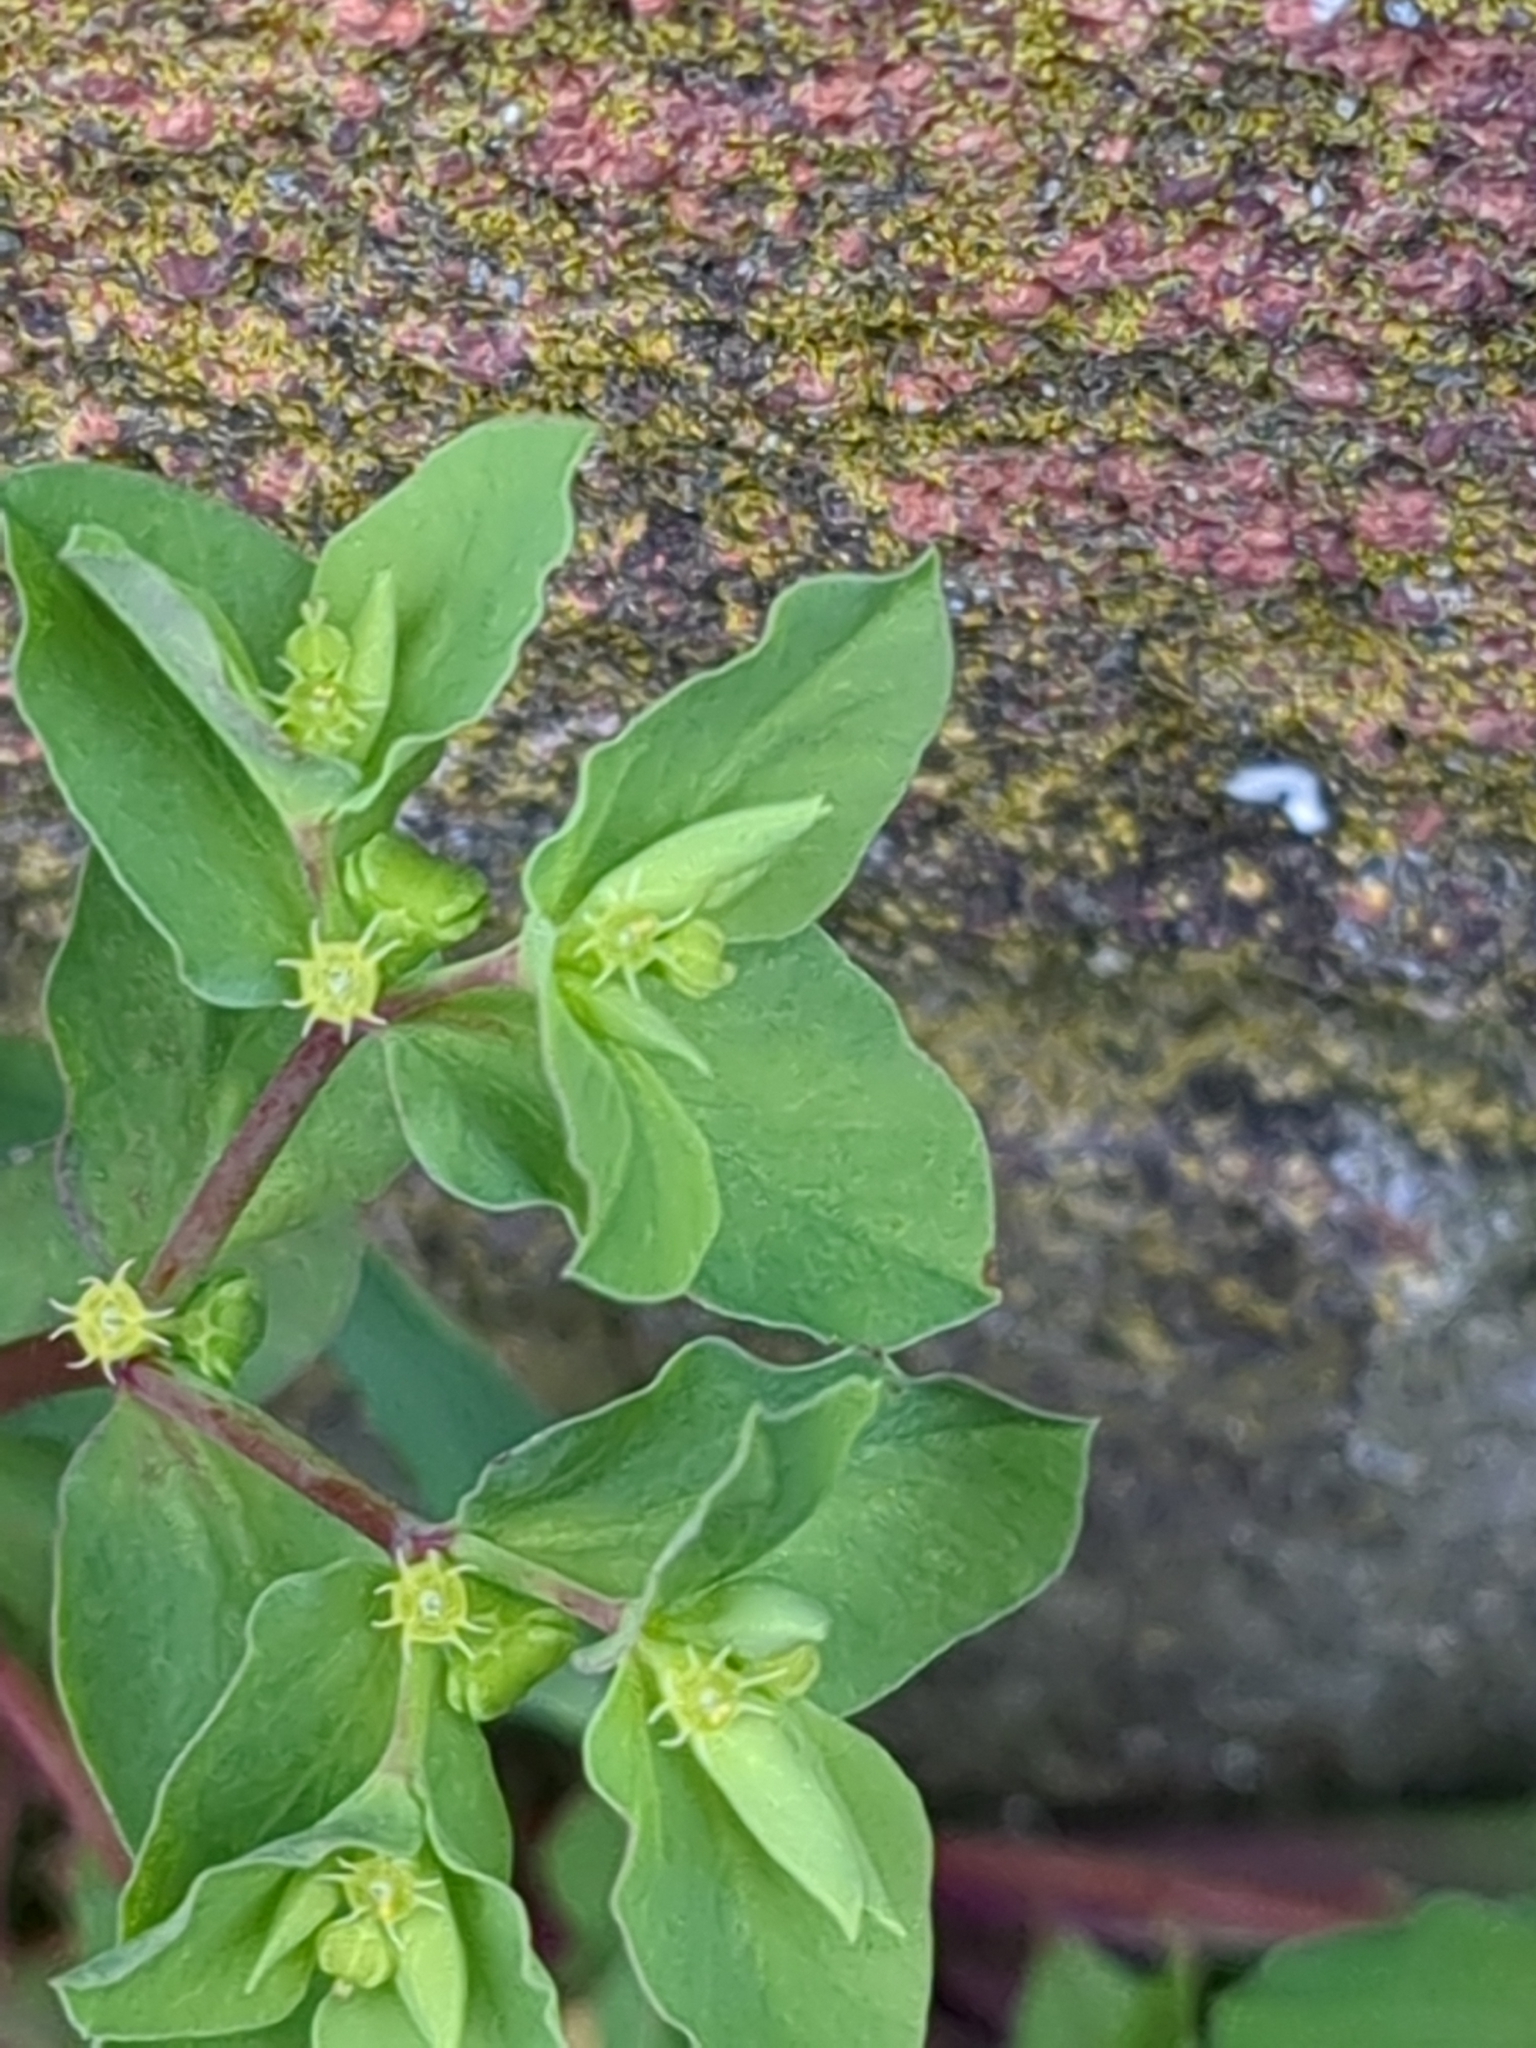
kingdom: Plantae
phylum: Tracheophyta
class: Magnoliopsida
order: Malpighiales
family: Euphorbiaceae
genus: Euphorbia
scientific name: Euphorbia peplus
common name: Petty spurge
